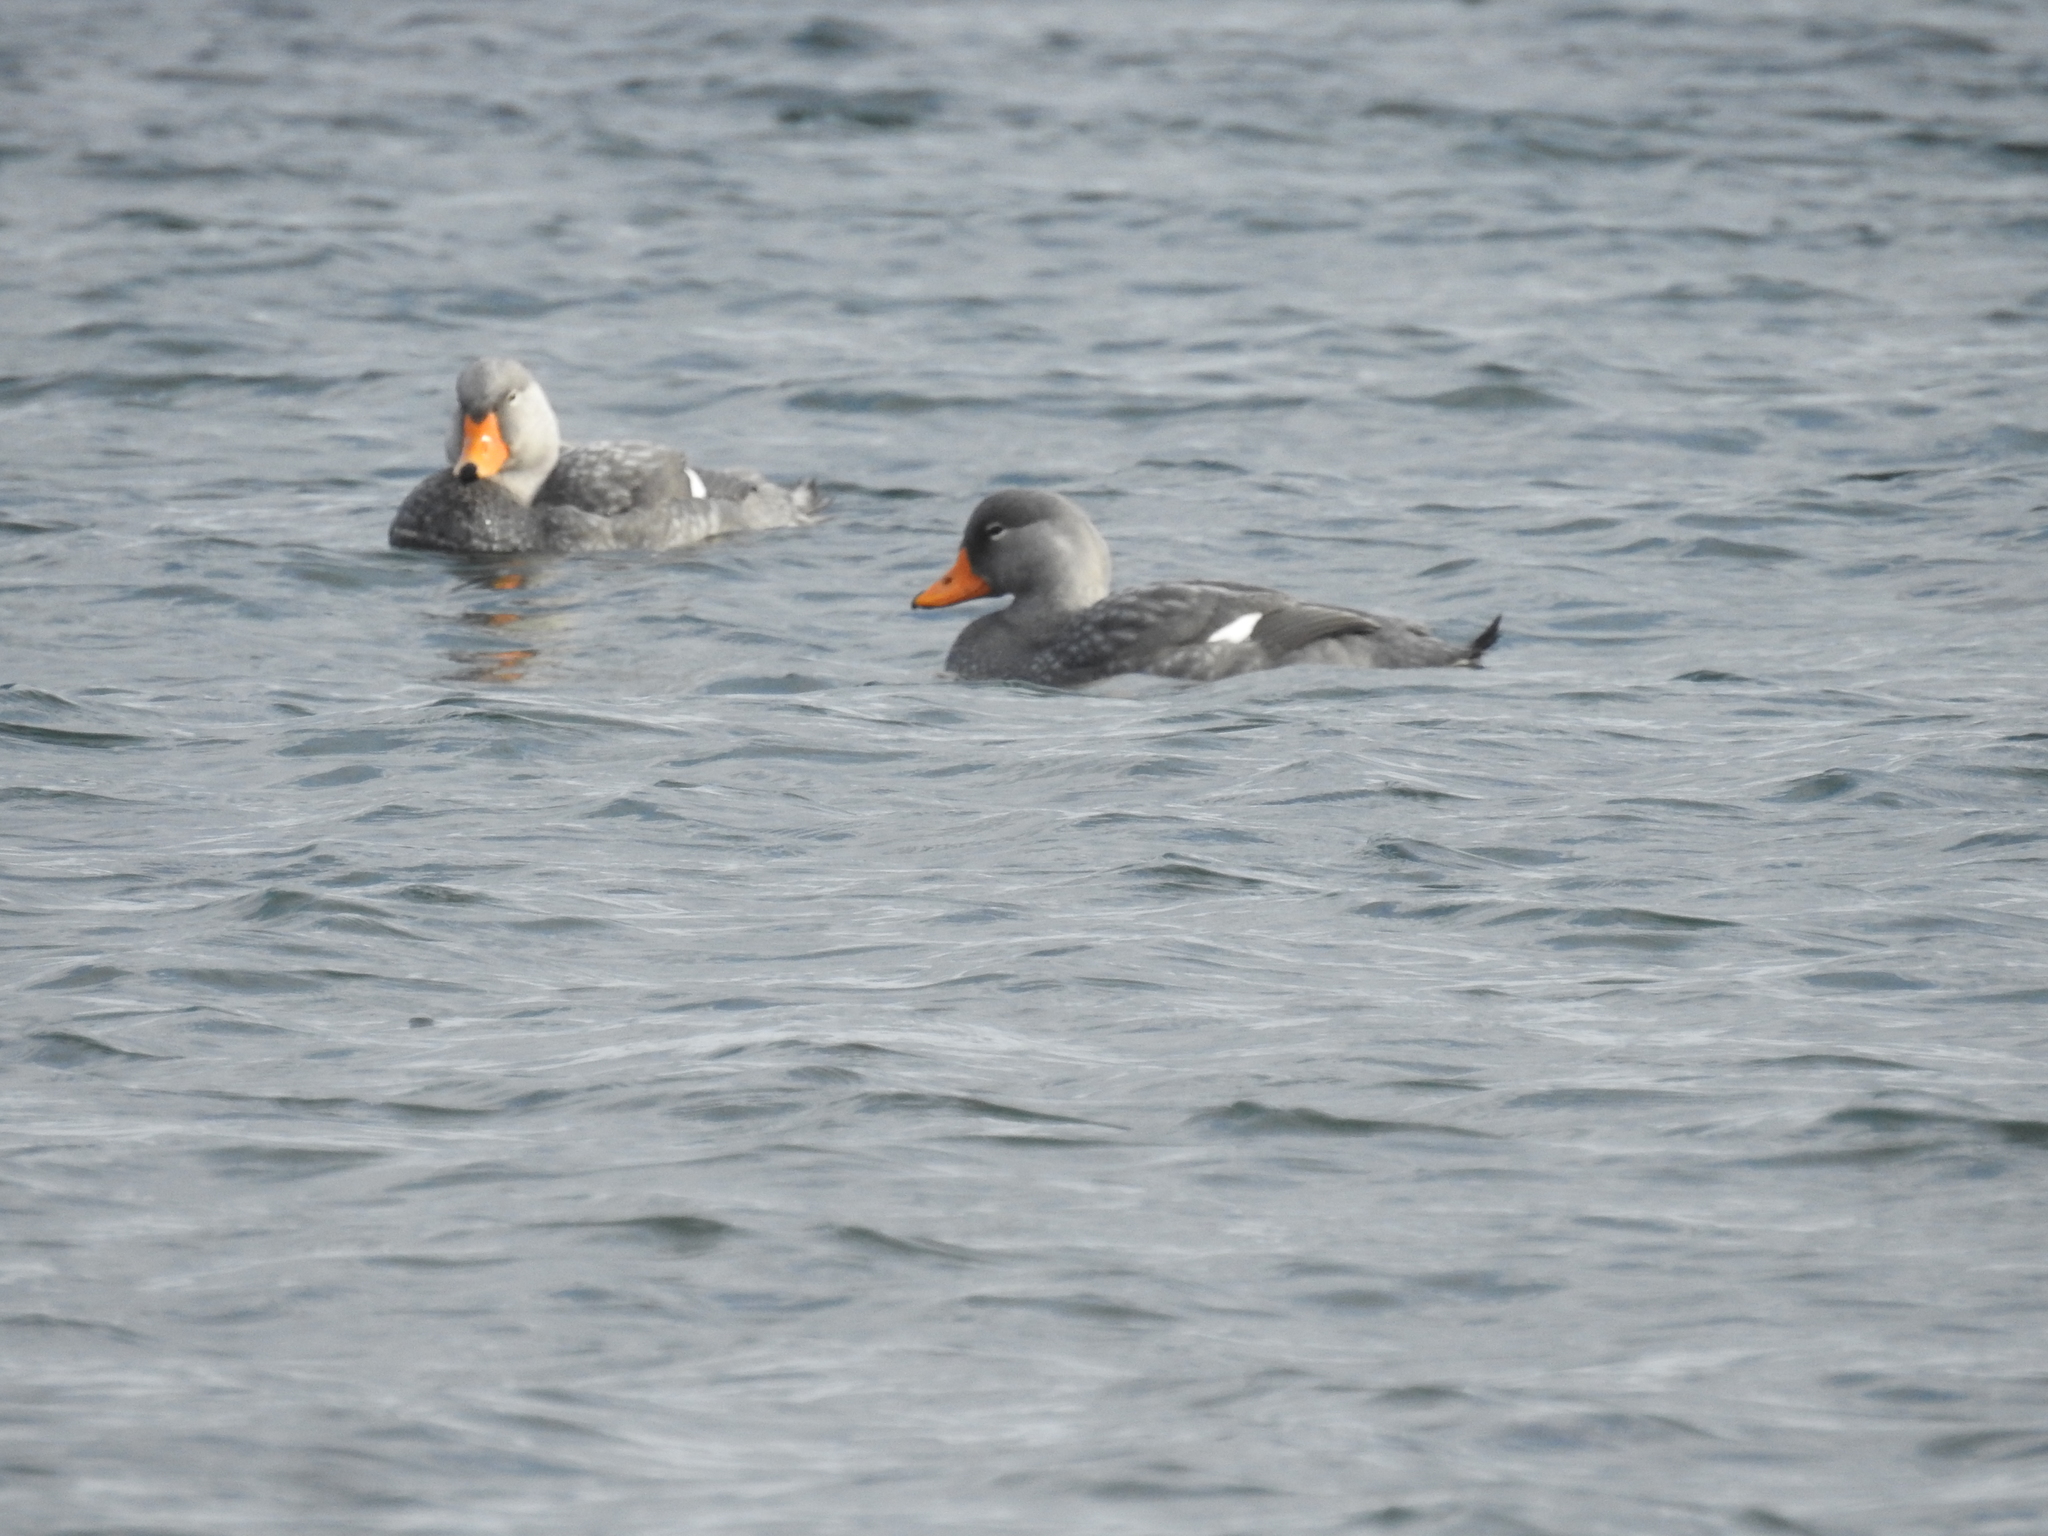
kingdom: Animalia
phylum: Chordata
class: Aves
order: Anseriformes
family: Anatidae
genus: Tachyeres
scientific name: Tachyeres pteneres
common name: Fuegian steamer duck
